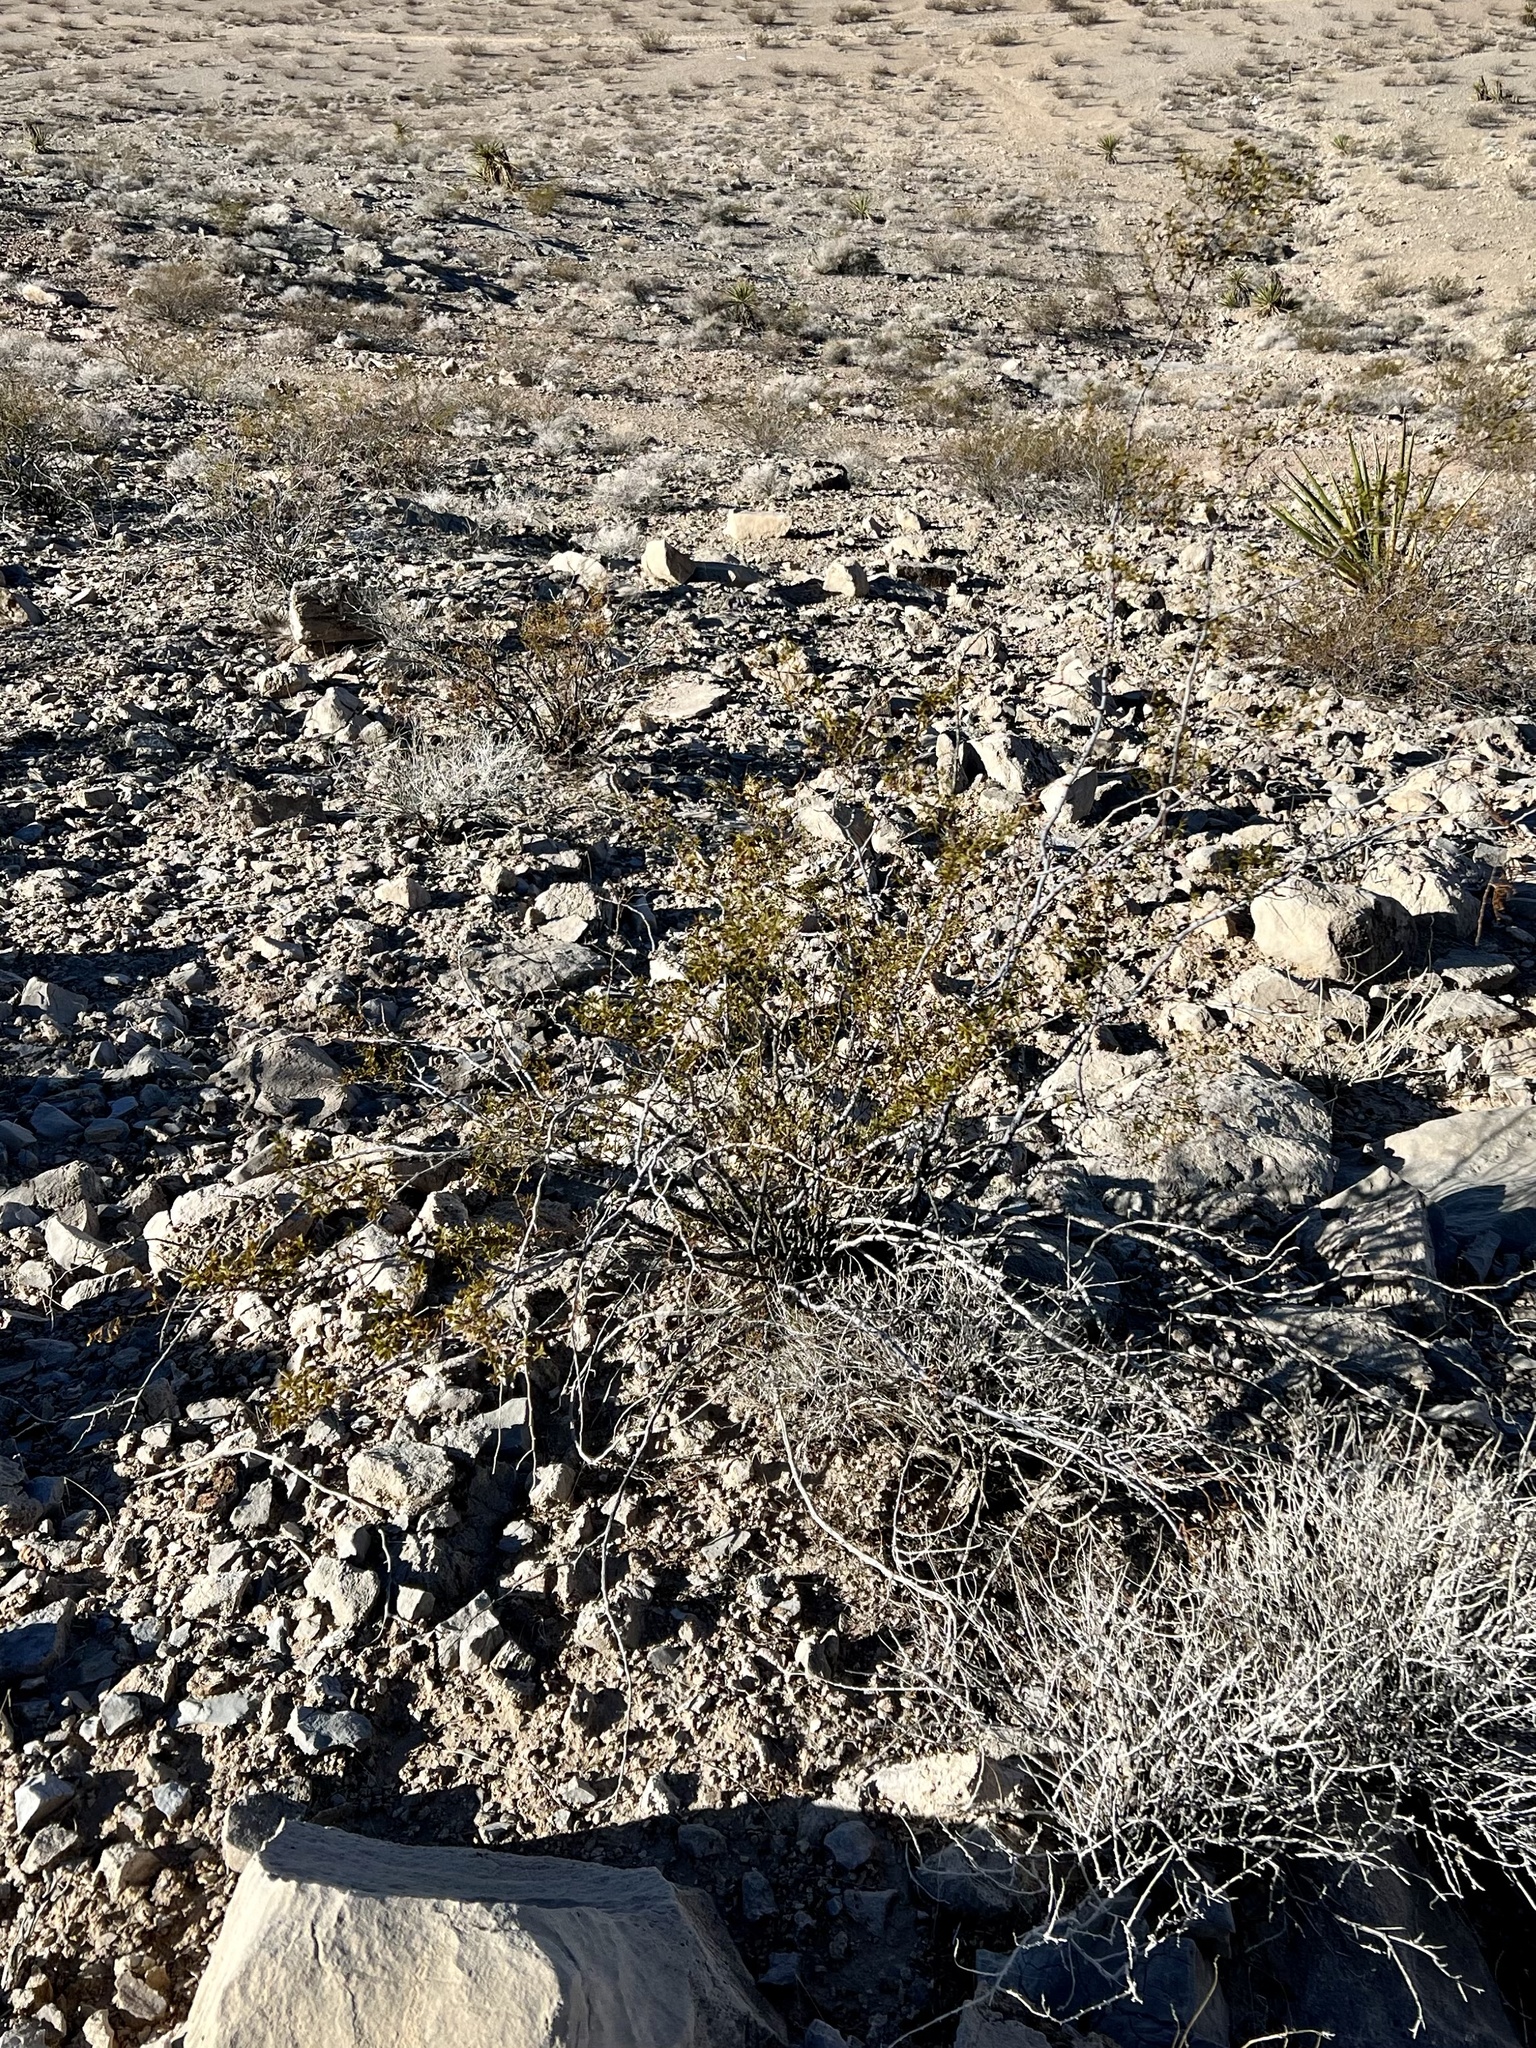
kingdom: Plantae
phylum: Tracheophyta
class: Magnoliopsida
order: Zygophyllales
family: Zygophyllaceae
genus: Larrea
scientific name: Larrea tridentata
